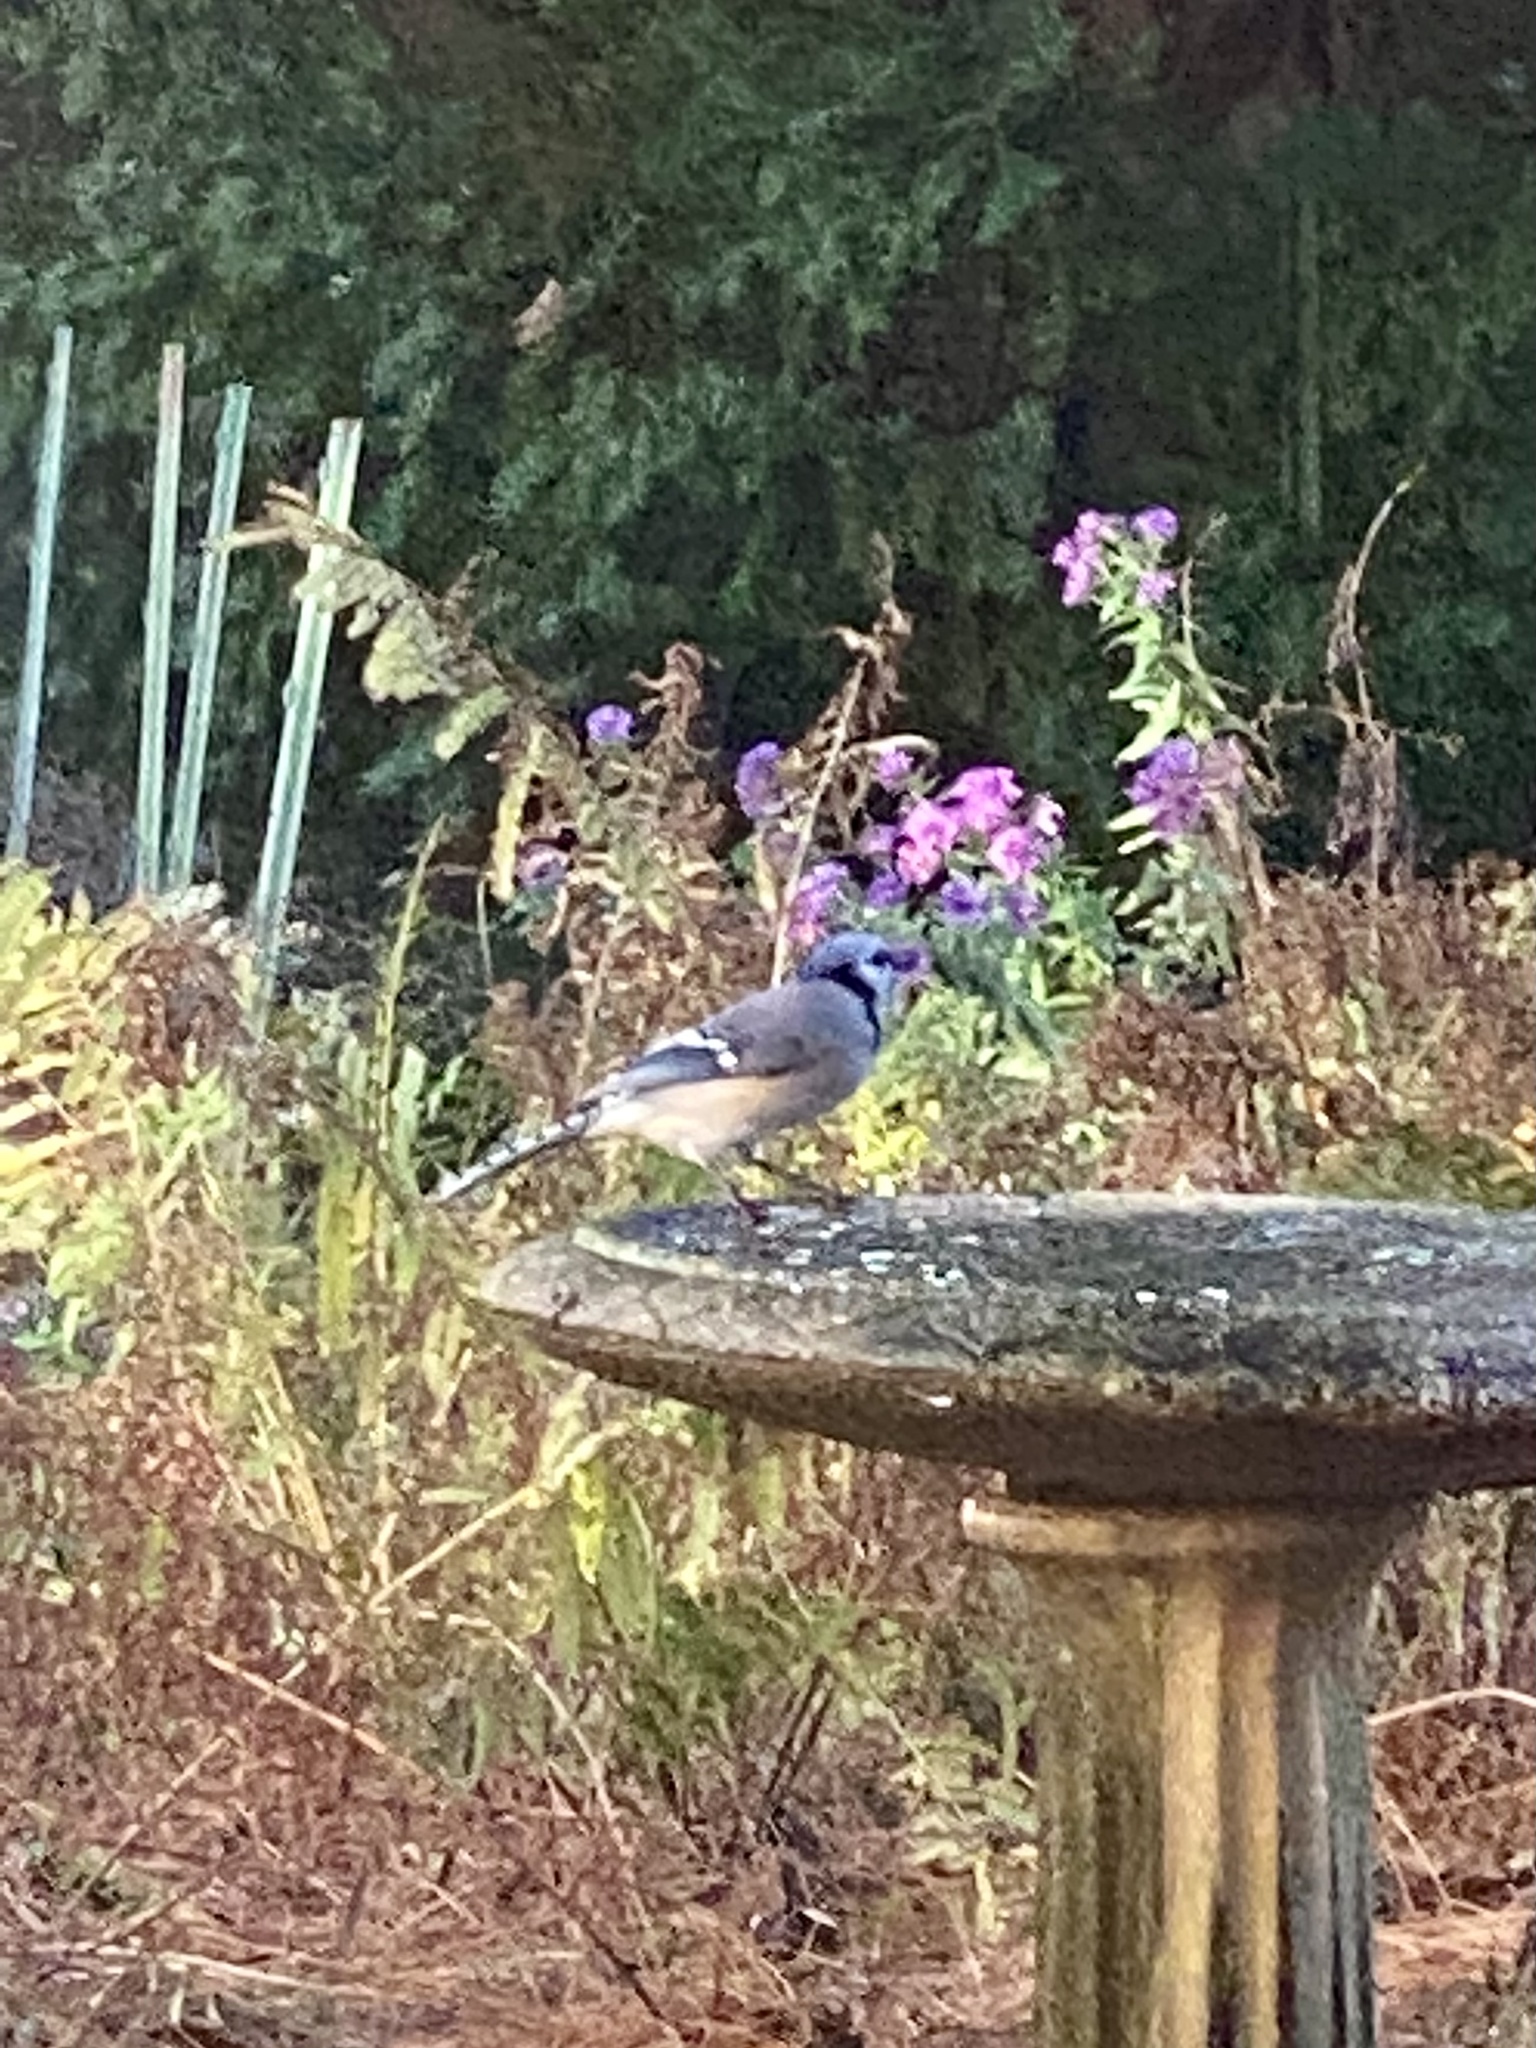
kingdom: Animalia
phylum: Chordata
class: Aves
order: Passeriformes
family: Corvidae
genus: Cyanocitta
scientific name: Cyanocitta cristata
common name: Blue jay
